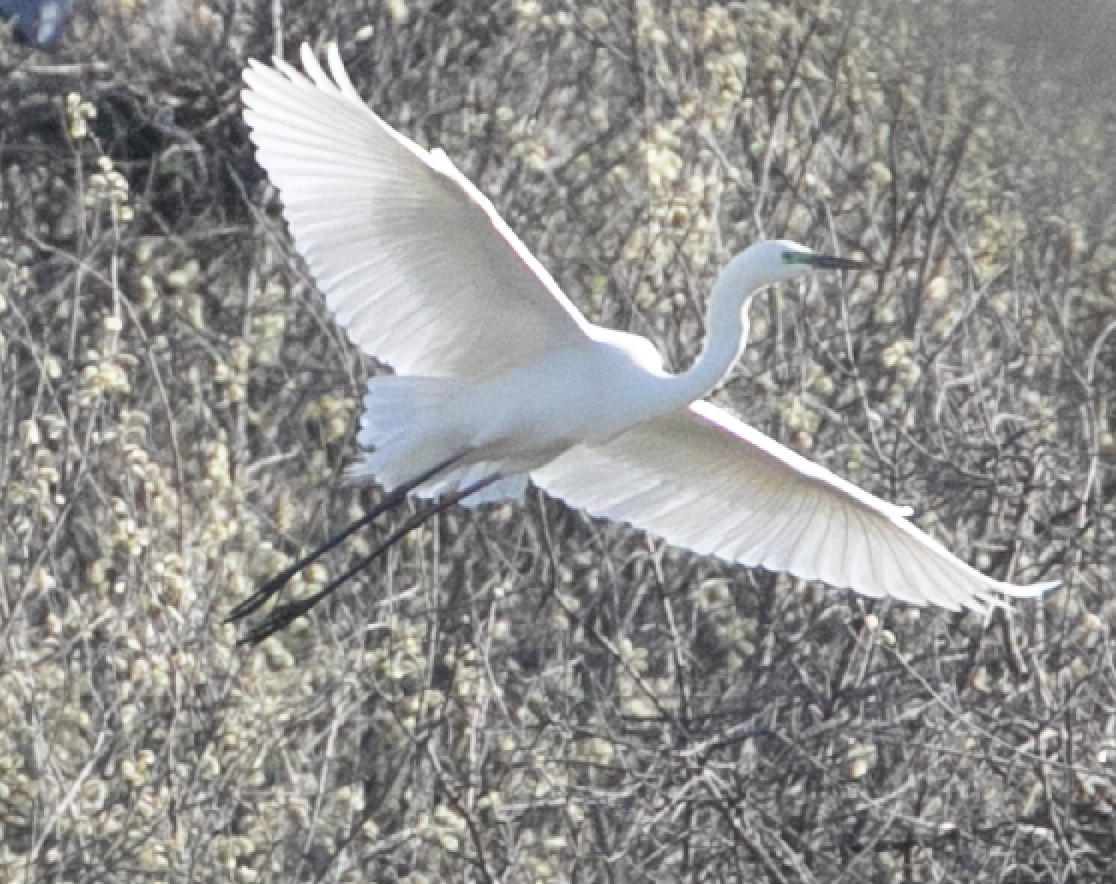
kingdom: Animalia
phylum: Chordata
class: Aves
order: Pelecaniformes
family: Ardeidae
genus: Ardea
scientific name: Ardea alba
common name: Great egret
